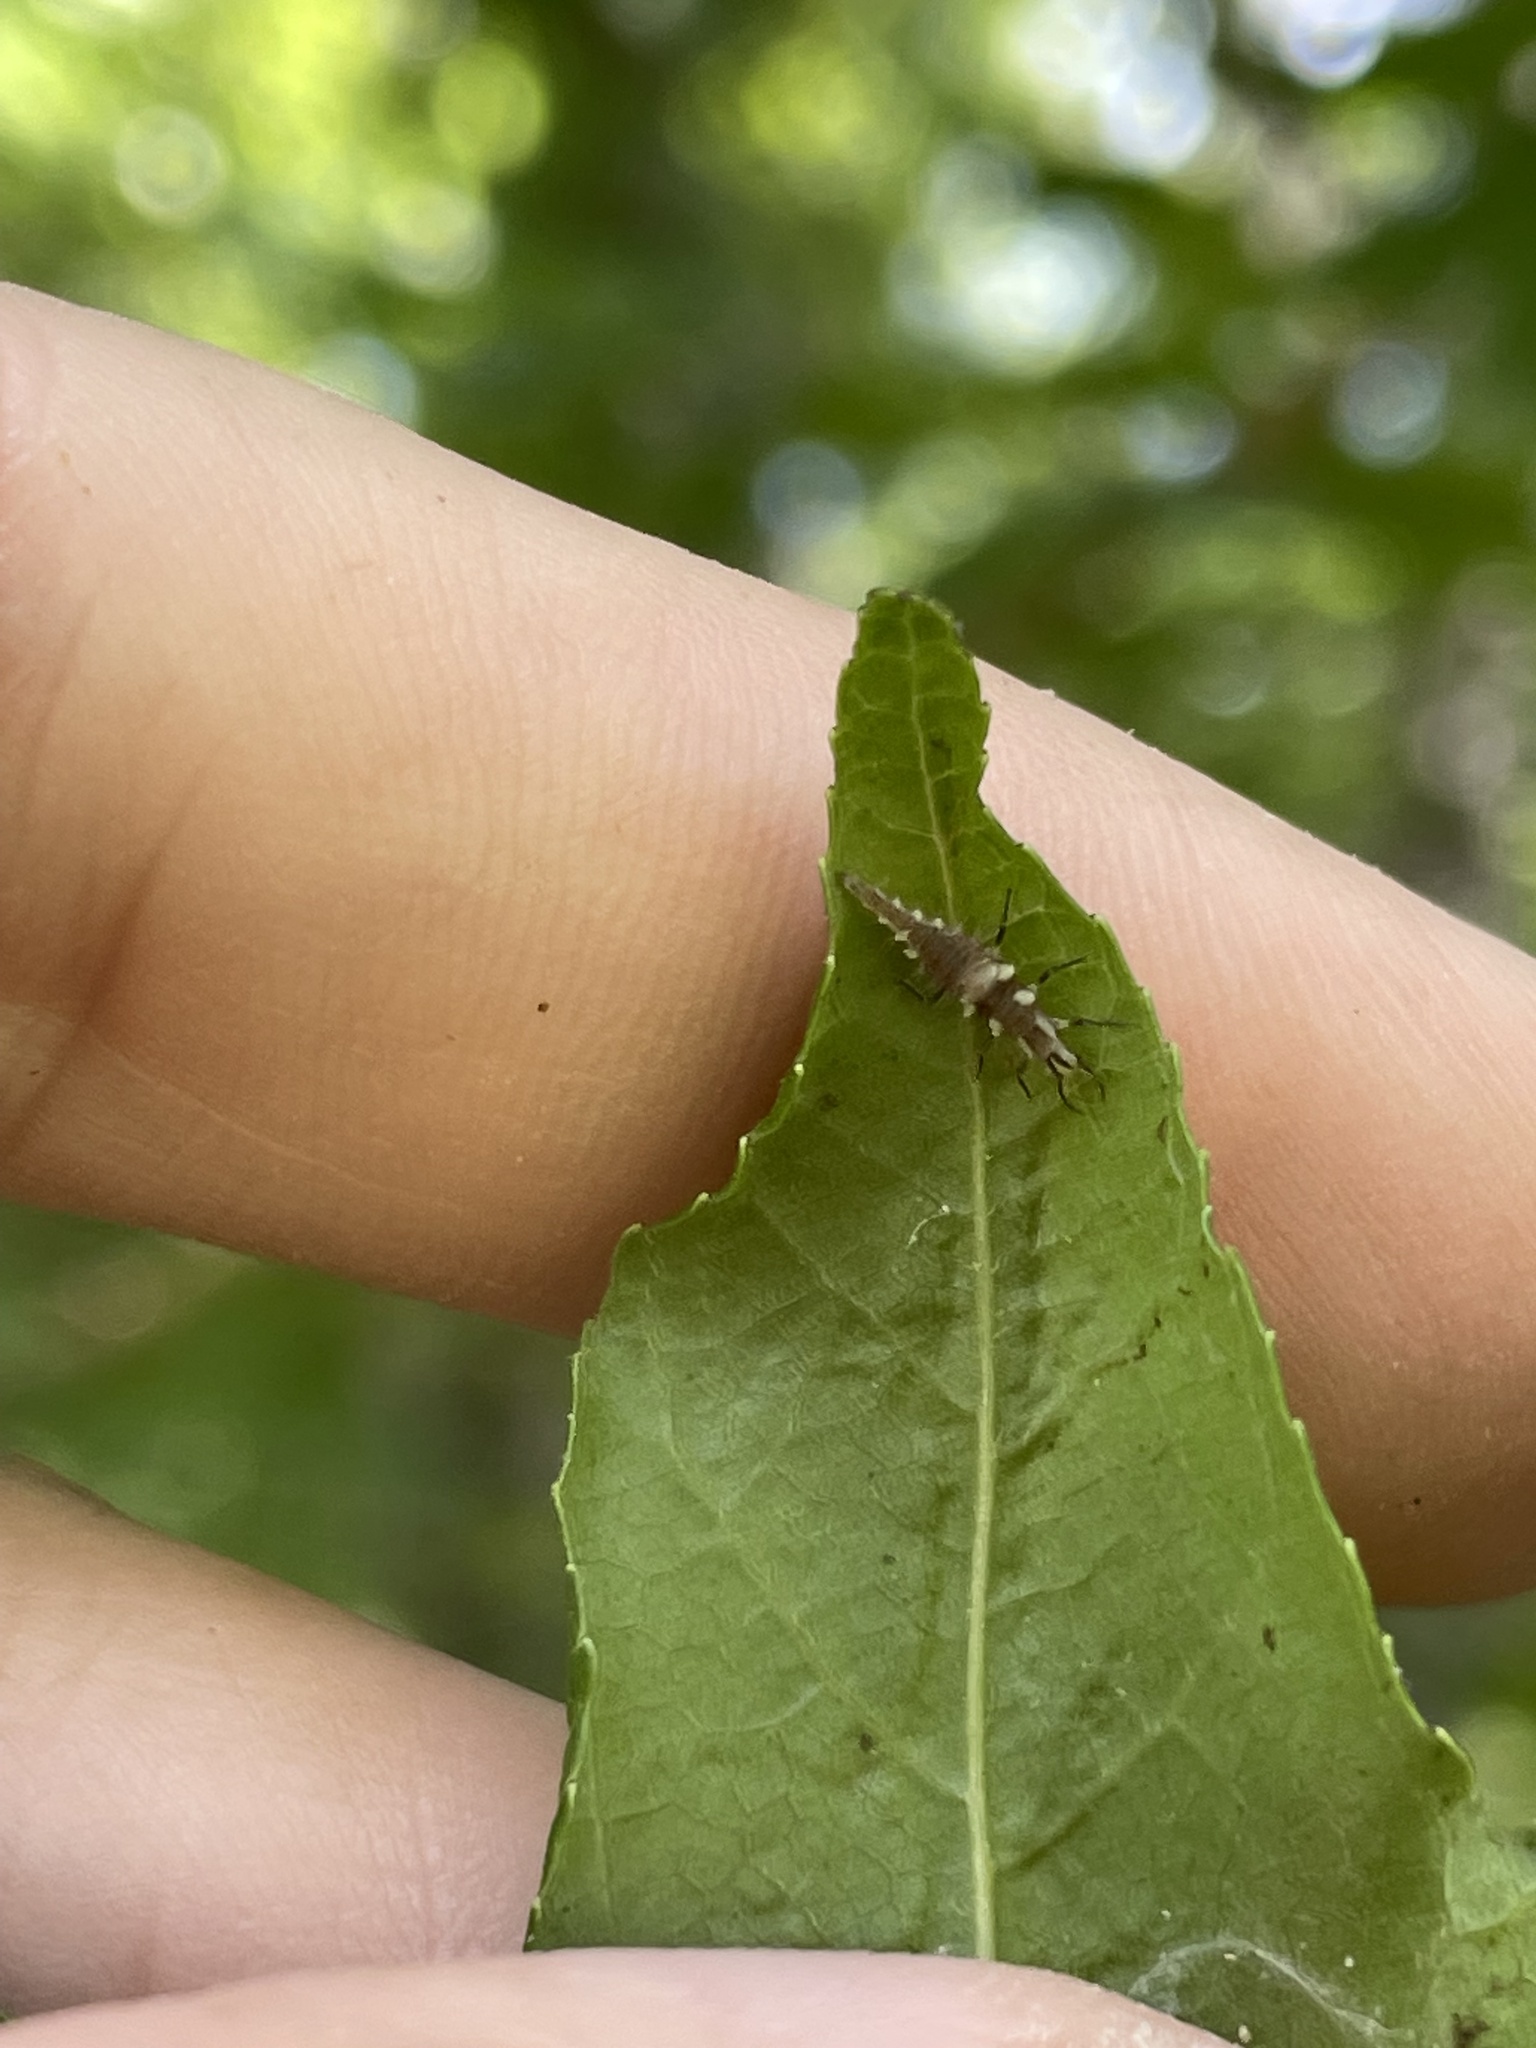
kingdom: Animalia
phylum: Arthropoda
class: Insecta
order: Neuroptera
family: Chrysopidae
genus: Chrysoperla
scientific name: Chrysoperla rufilabris
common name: Red-lipped green lacewing
